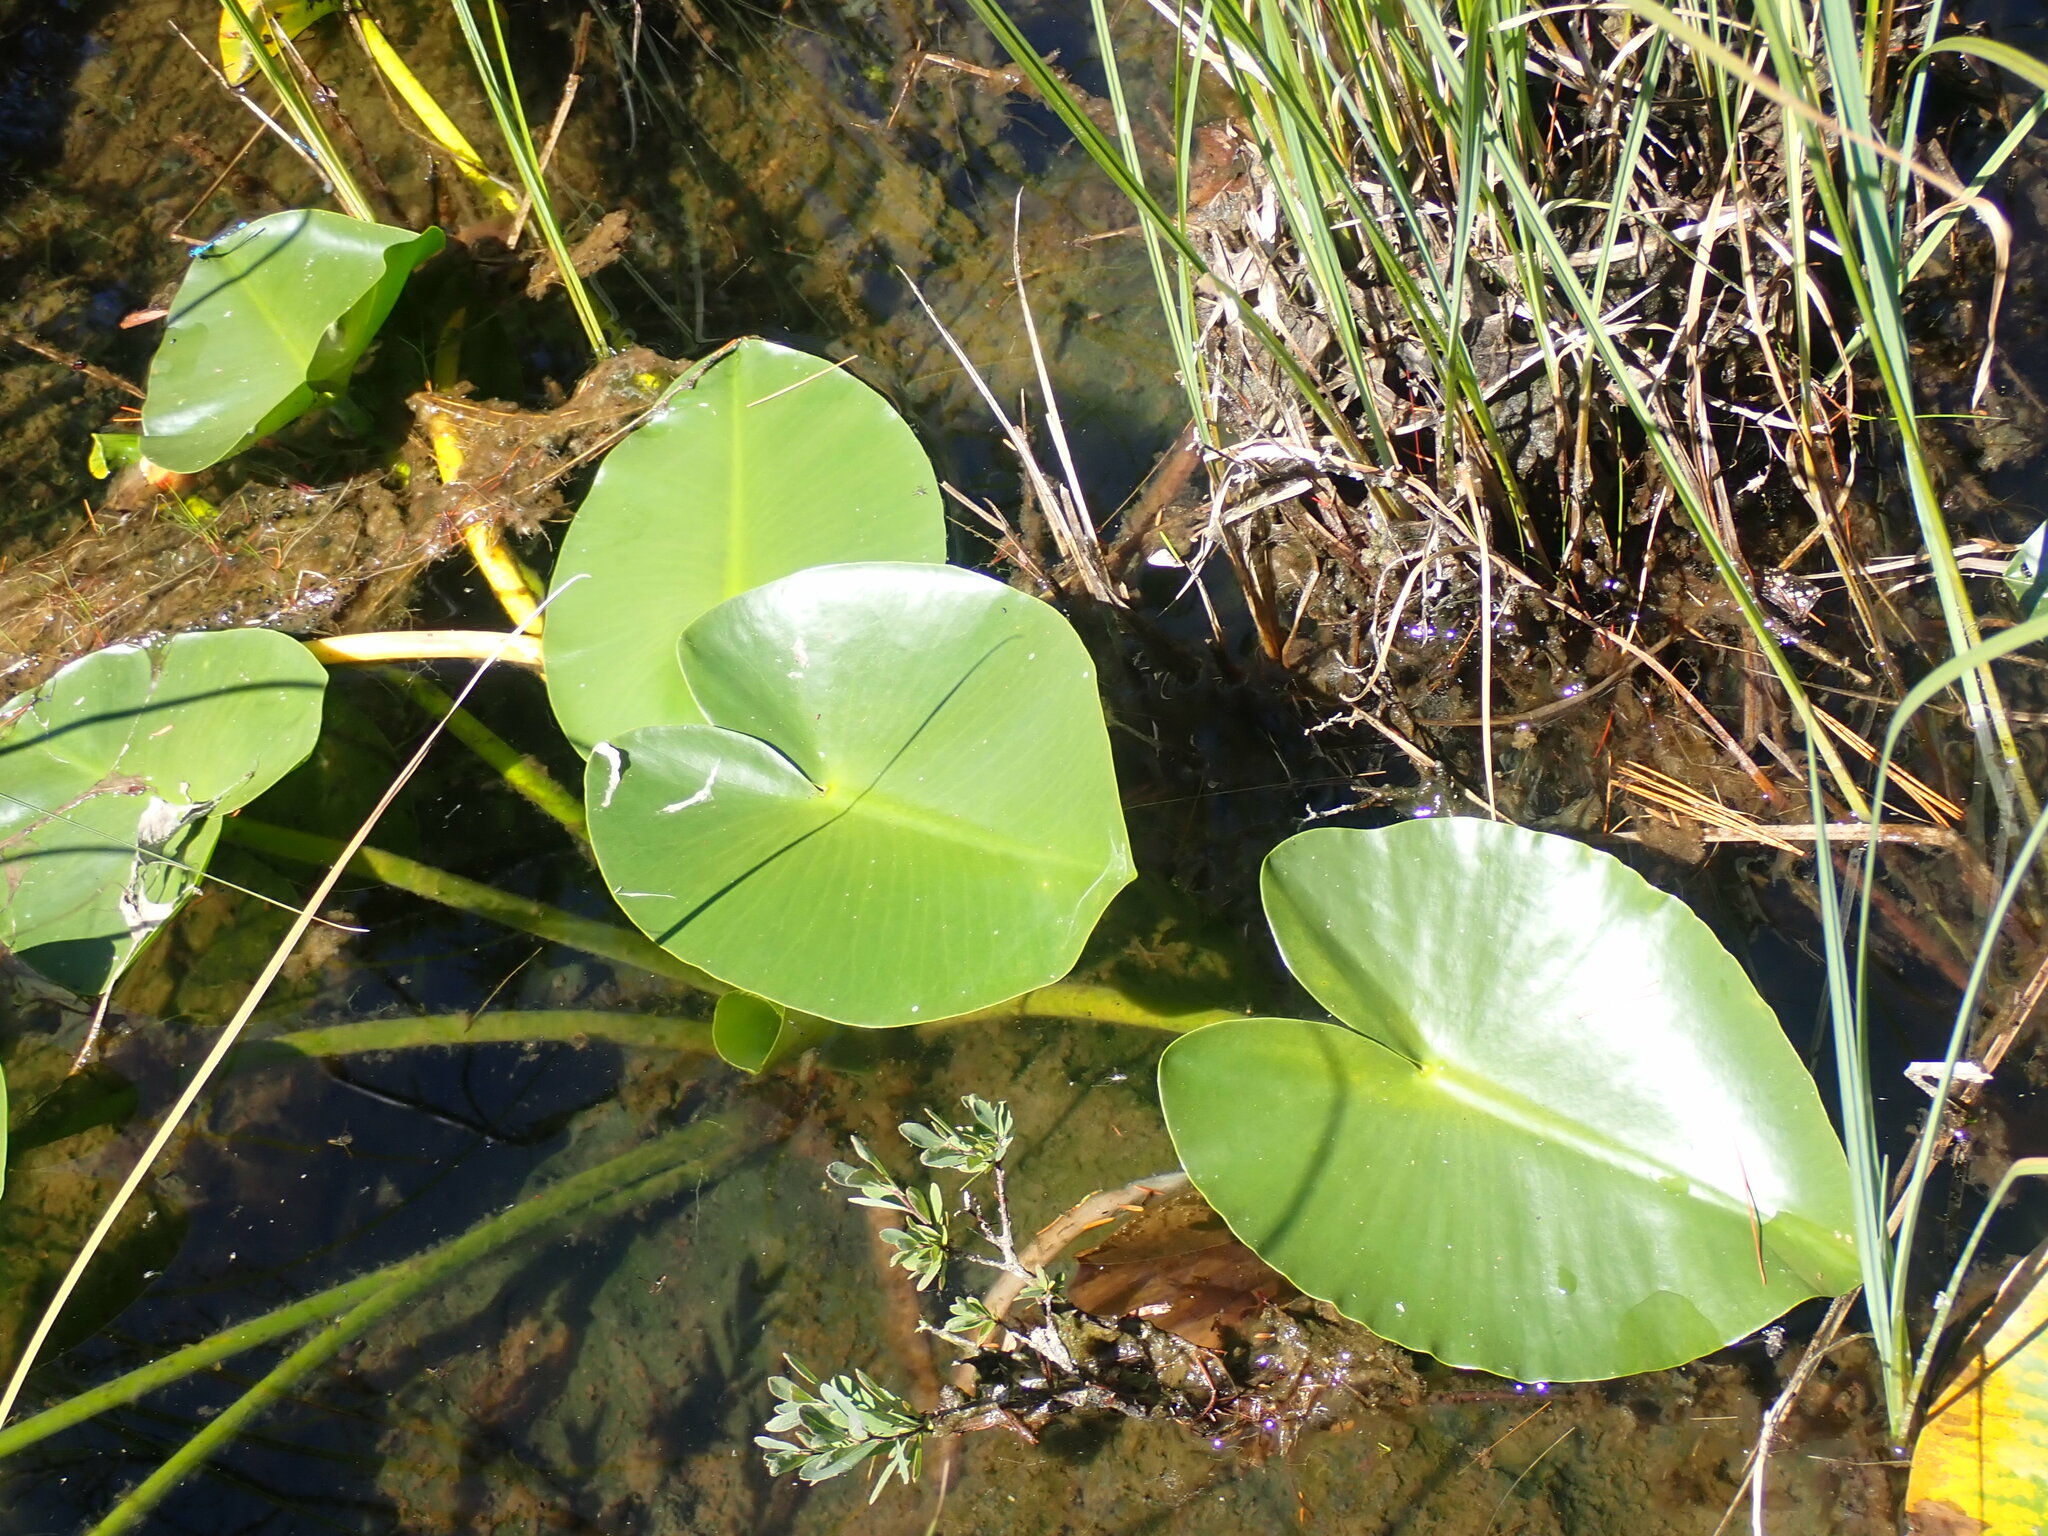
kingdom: Plantae
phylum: Tracheophyta
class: Magnoliopsida
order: Nymphaeales
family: Nymphaeaceae
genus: Nuphar
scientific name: Nuphar polysepala
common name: Rocky mountain cow-lily
